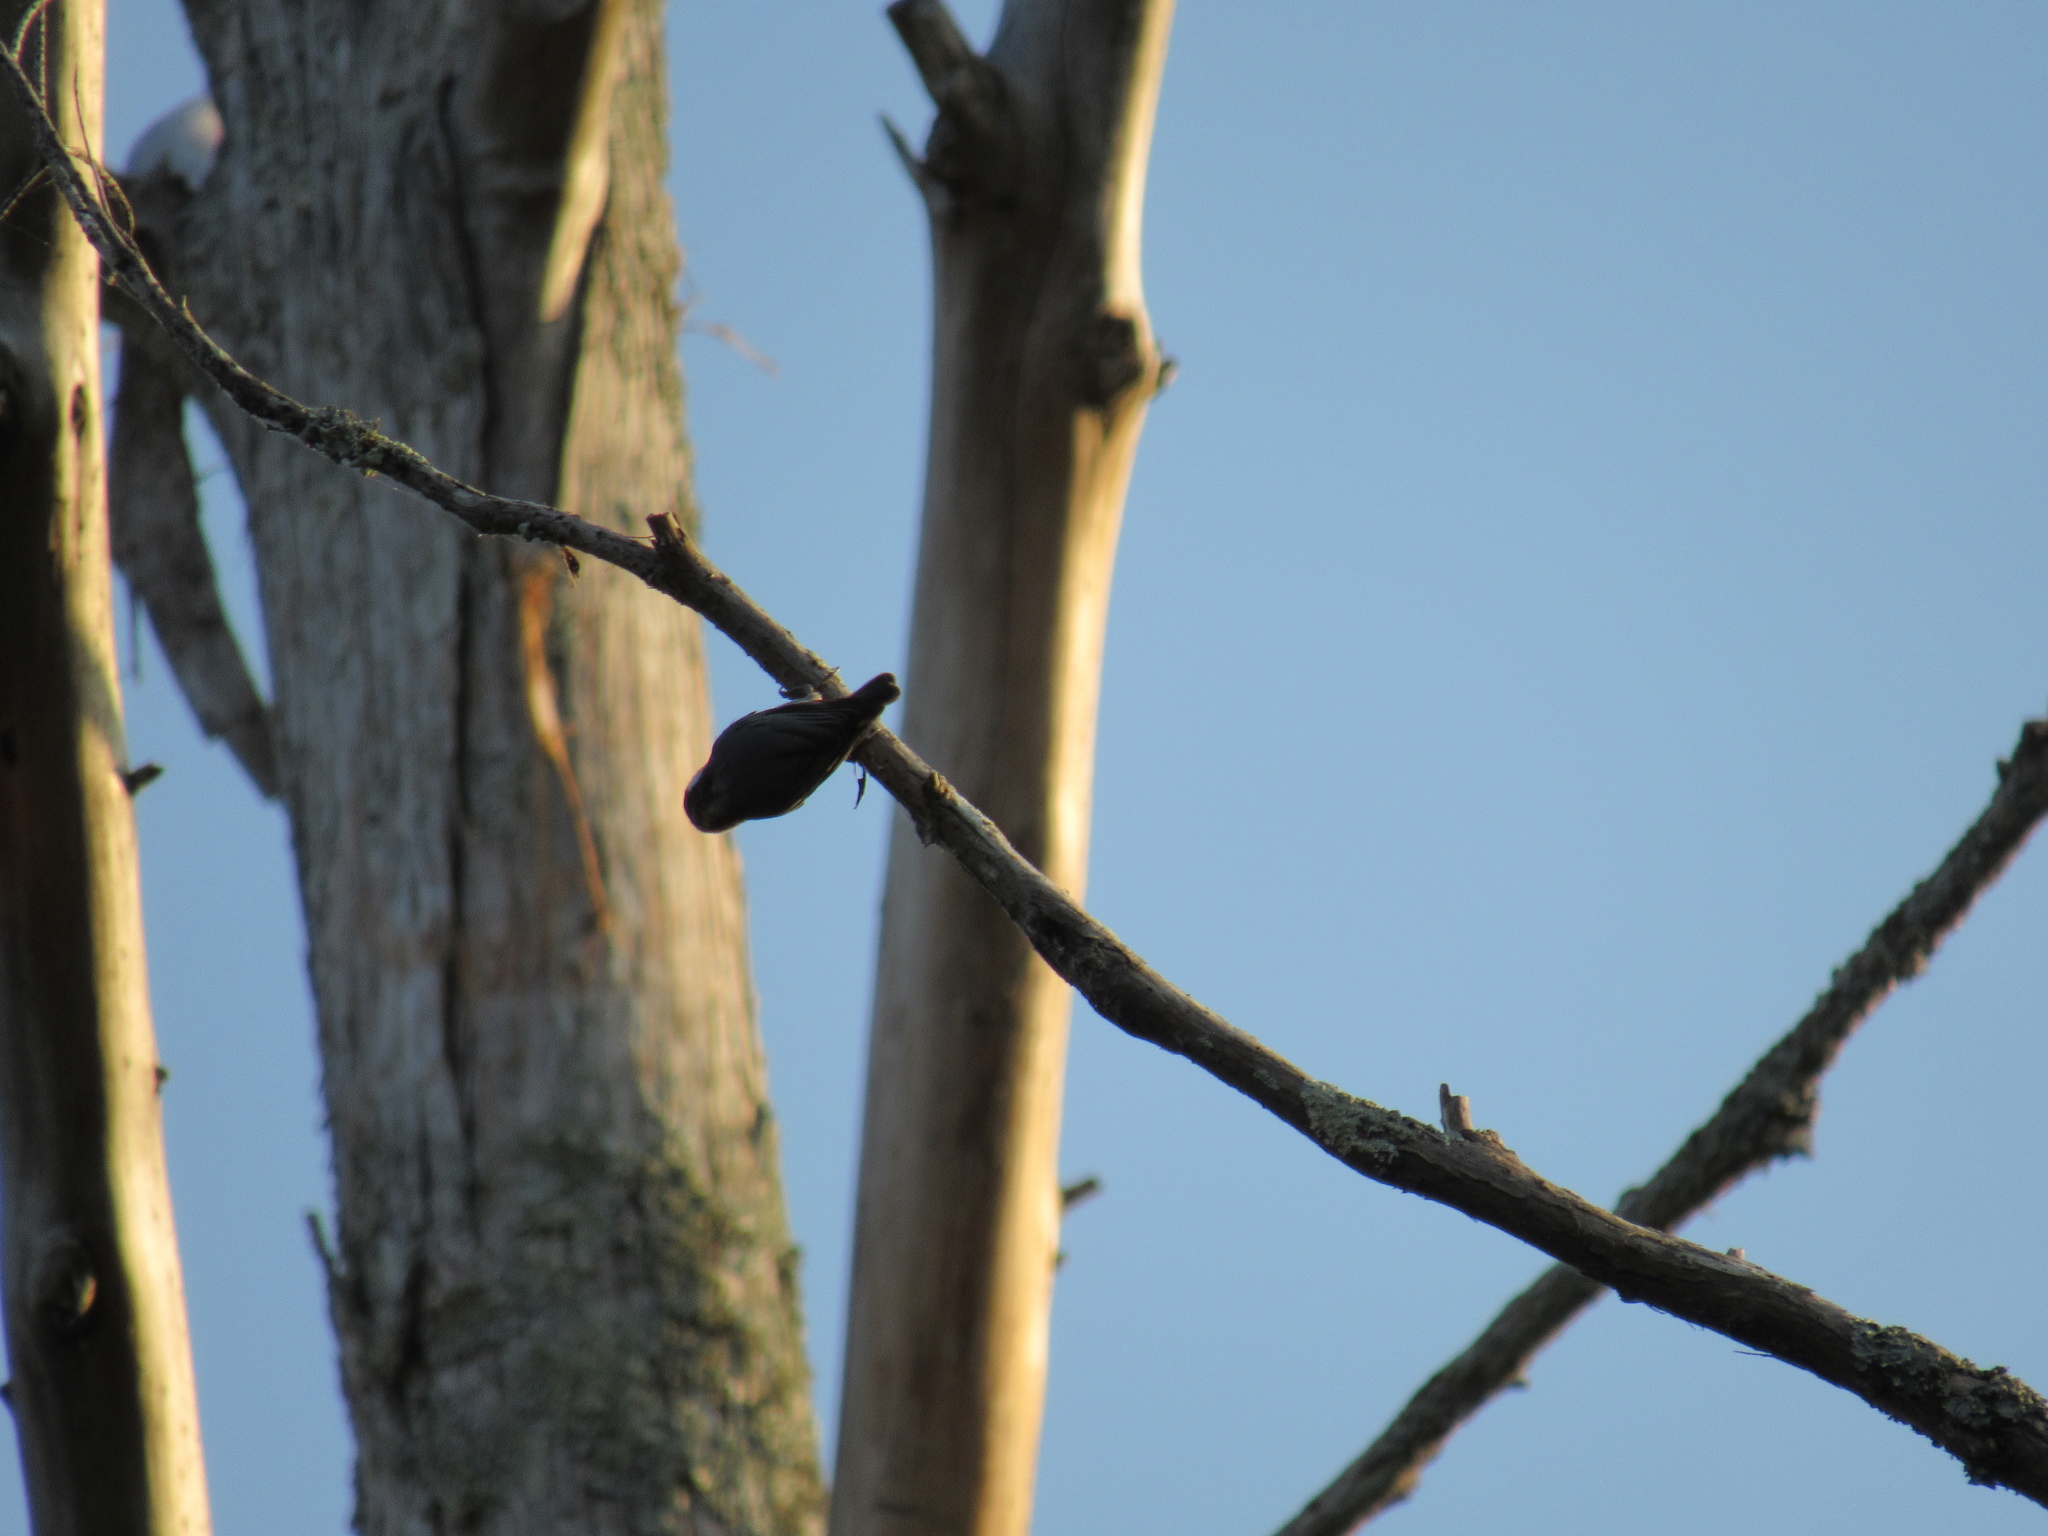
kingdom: Animalia
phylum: Chordata
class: Aves
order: Passeriformes
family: Sittidae
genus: Sitta
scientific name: Sitta pusilla
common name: Brown-headed nuthatch
